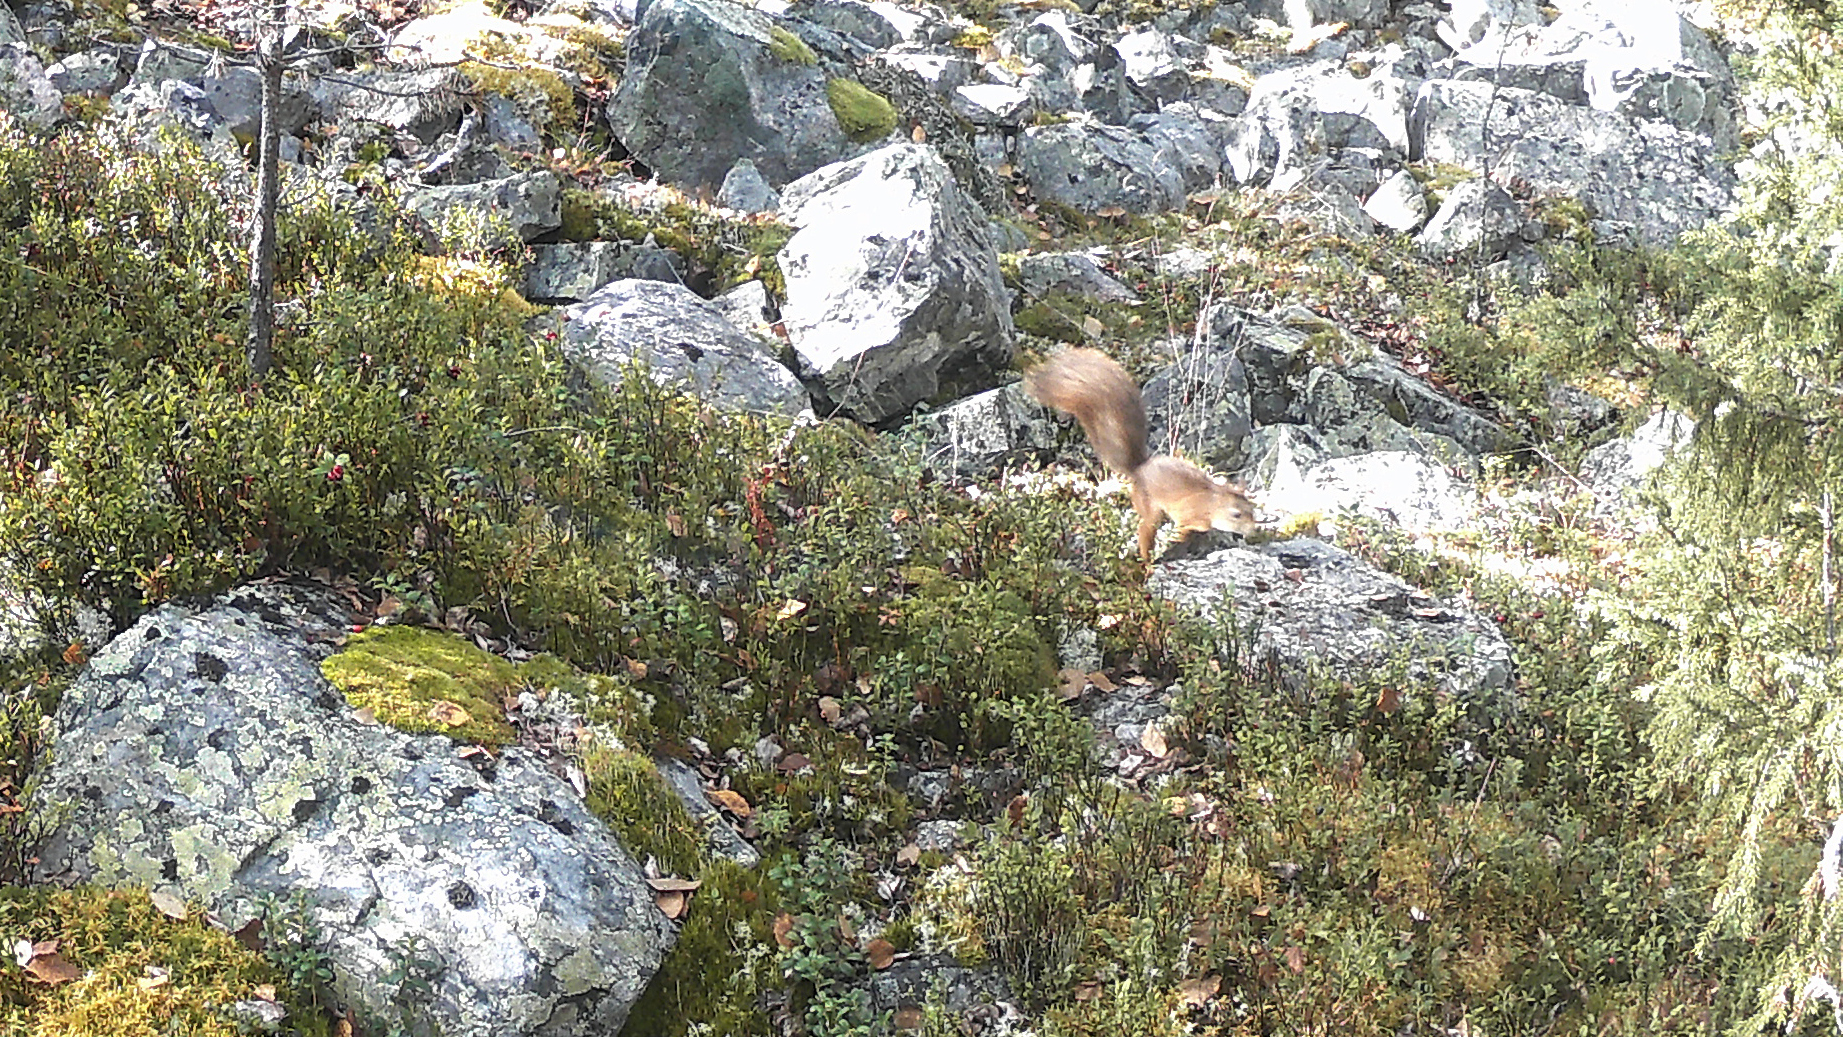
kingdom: Animalia
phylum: Chordata
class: Mammalia
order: Rodentia
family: Sciuridae
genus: Sciurus
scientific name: Sciurus vulgaris
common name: Eurasian red squirrel
